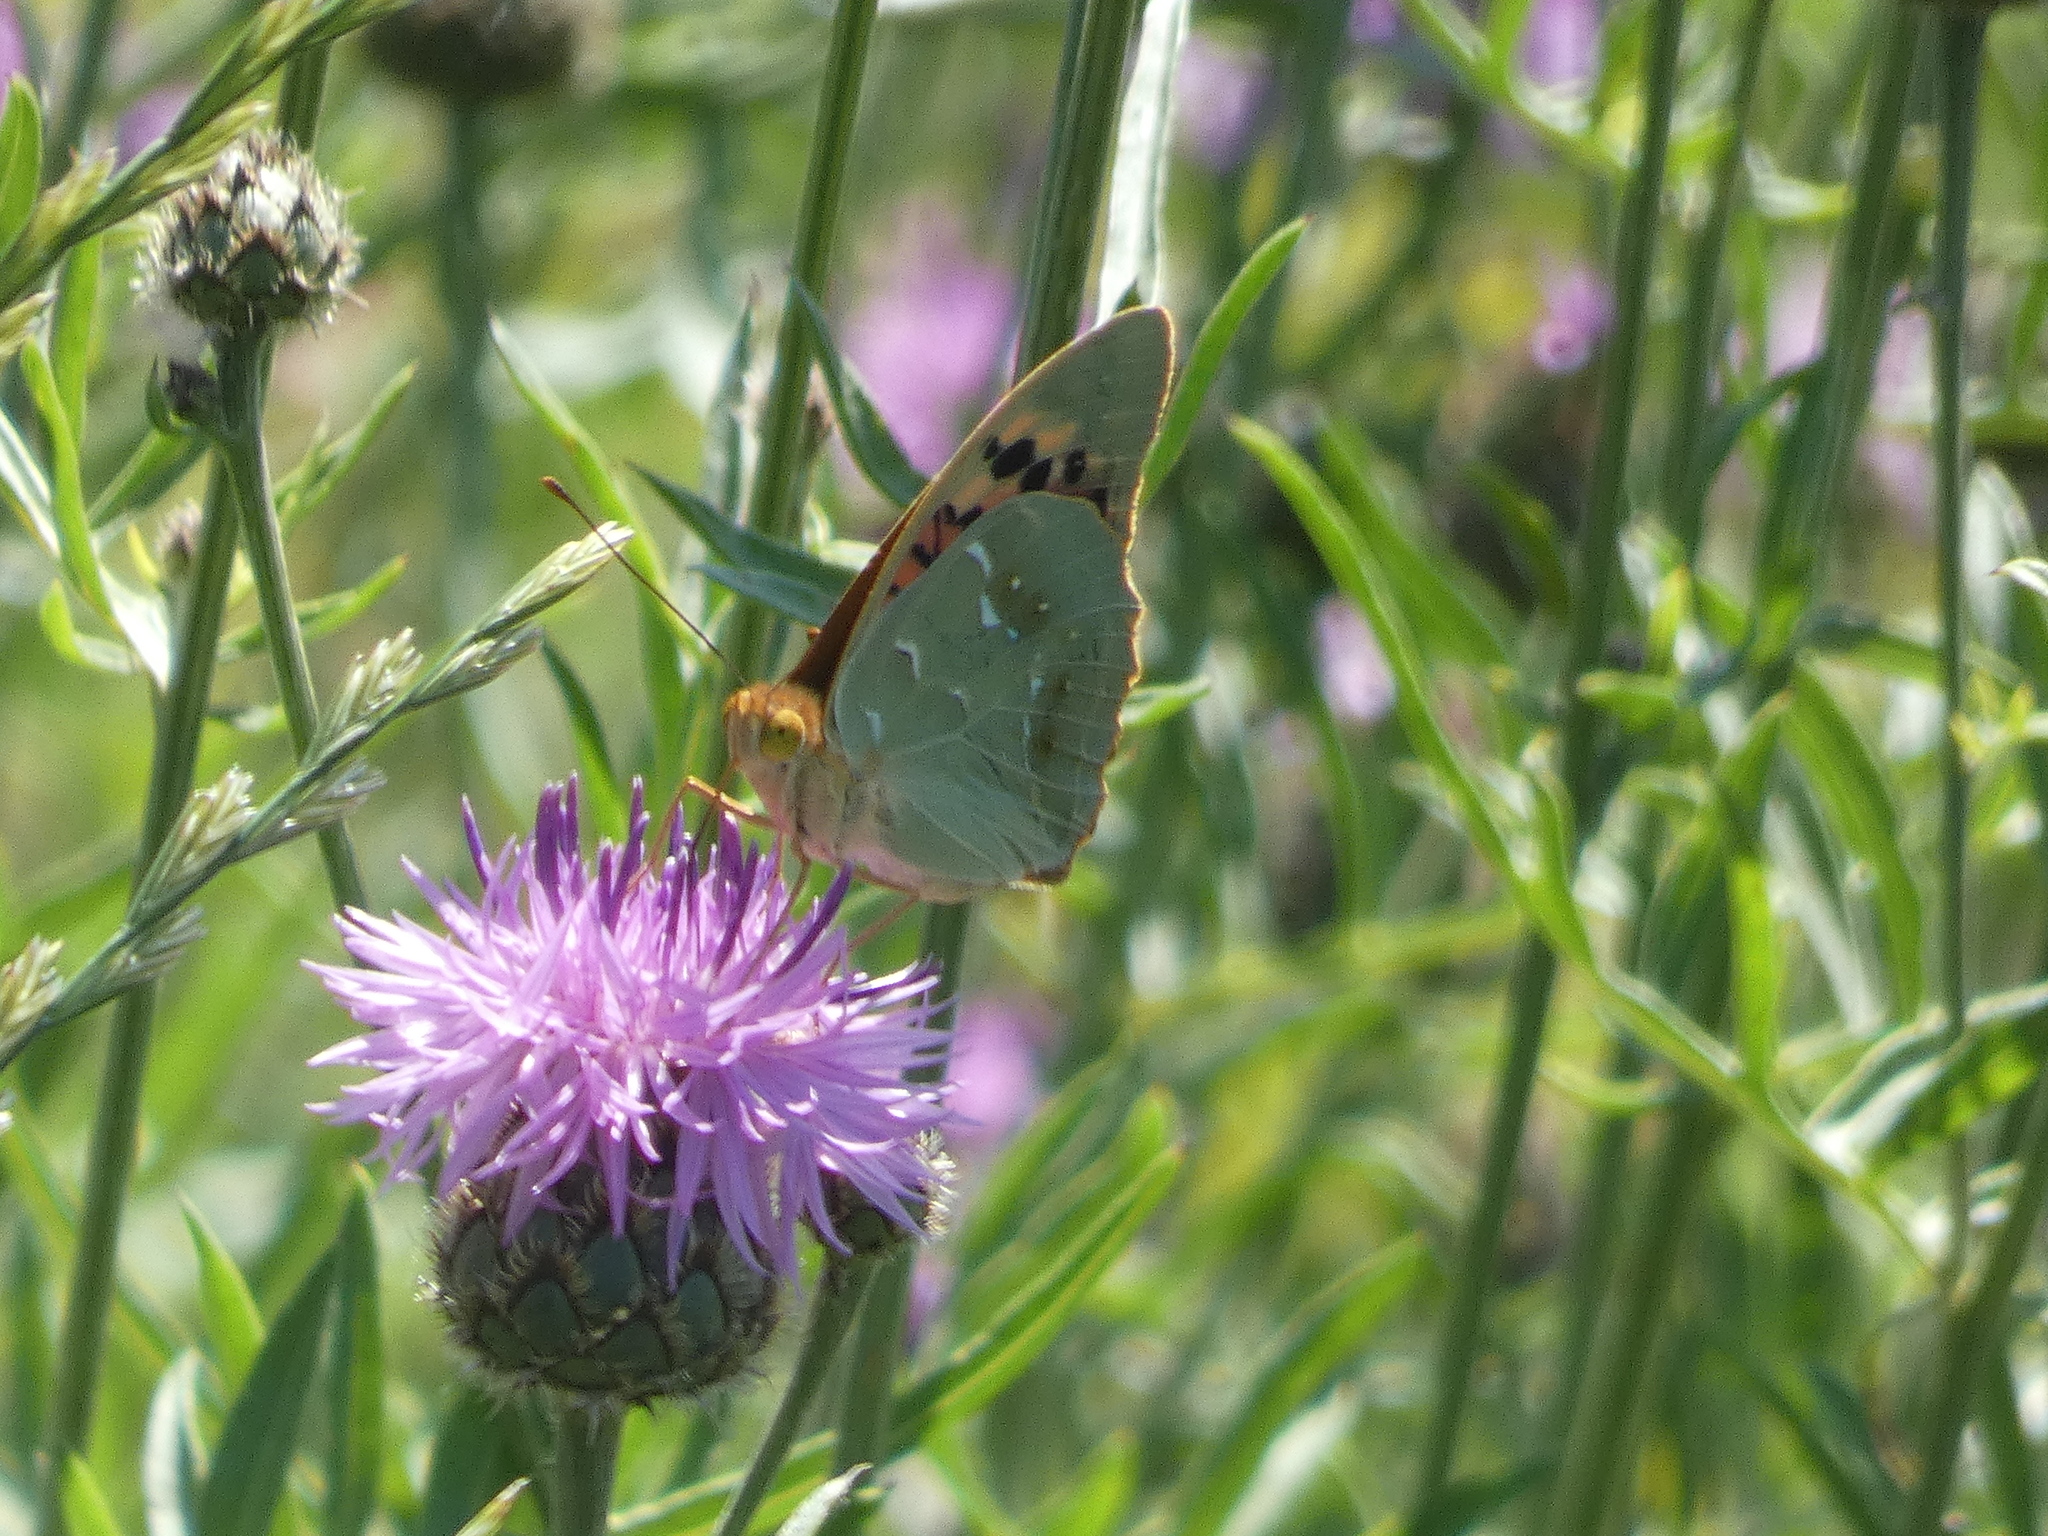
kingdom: Animalia
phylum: Arthropoda
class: Insecta
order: Lepidoptera
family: Nymphalidae
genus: Damora
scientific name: Damora pandora
